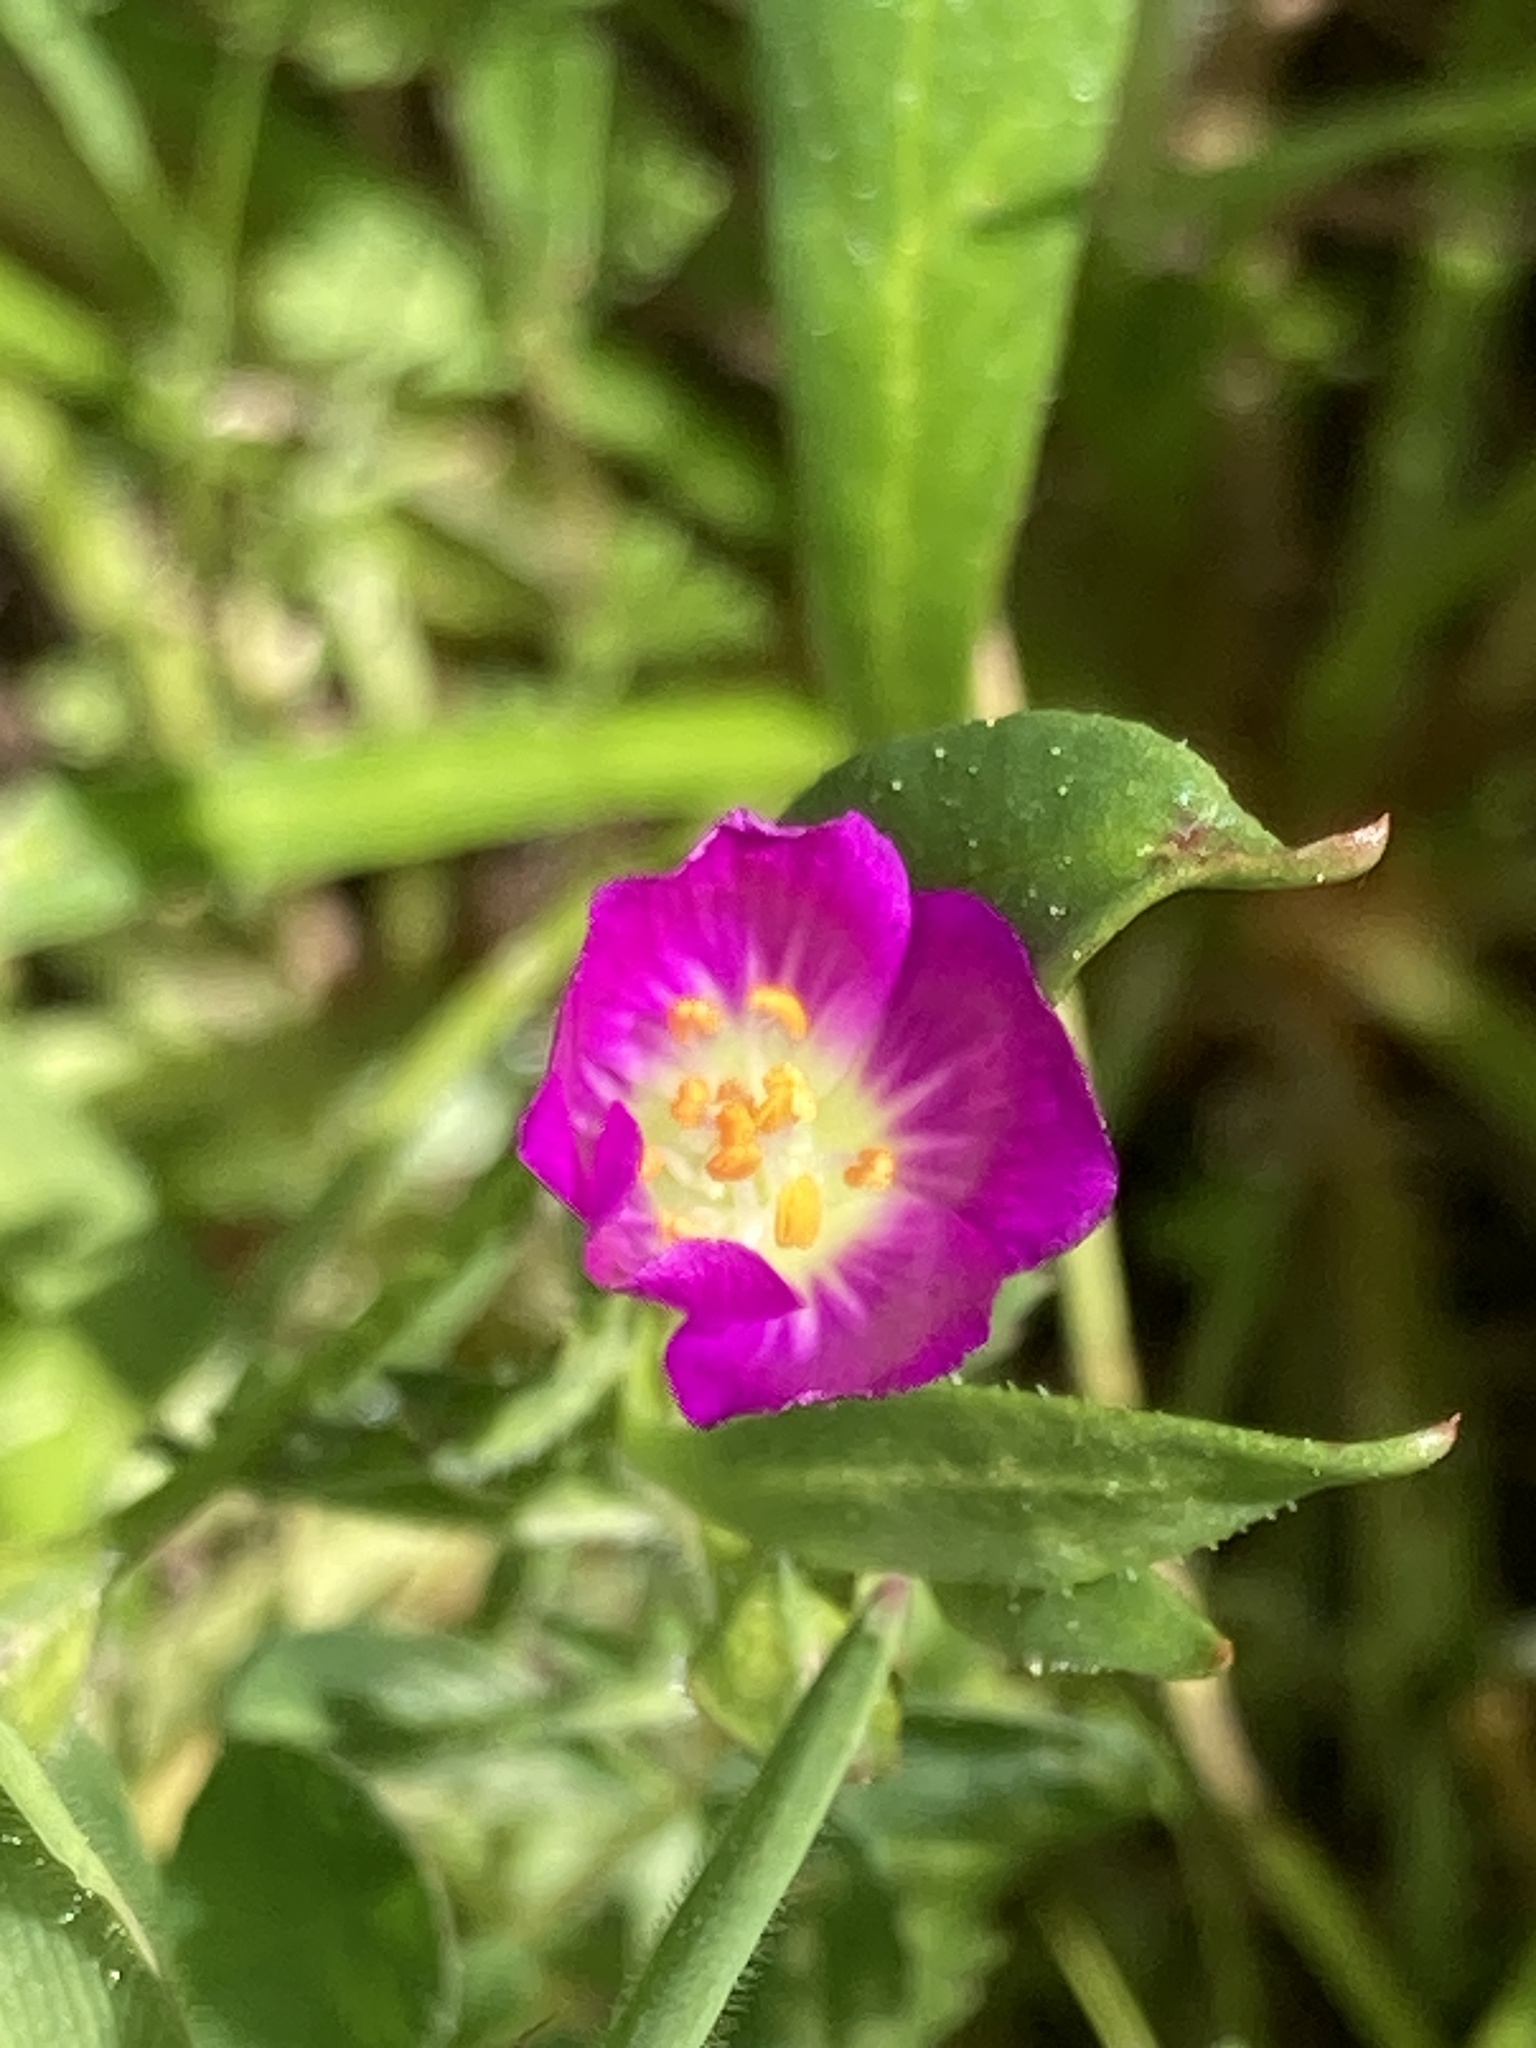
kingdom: Plantae
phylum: Tracheophyta
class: Magnoliopsida
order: Caryophyllales
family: Montiaceae
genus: Calandrinia
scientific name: Calandrinia menziesii
